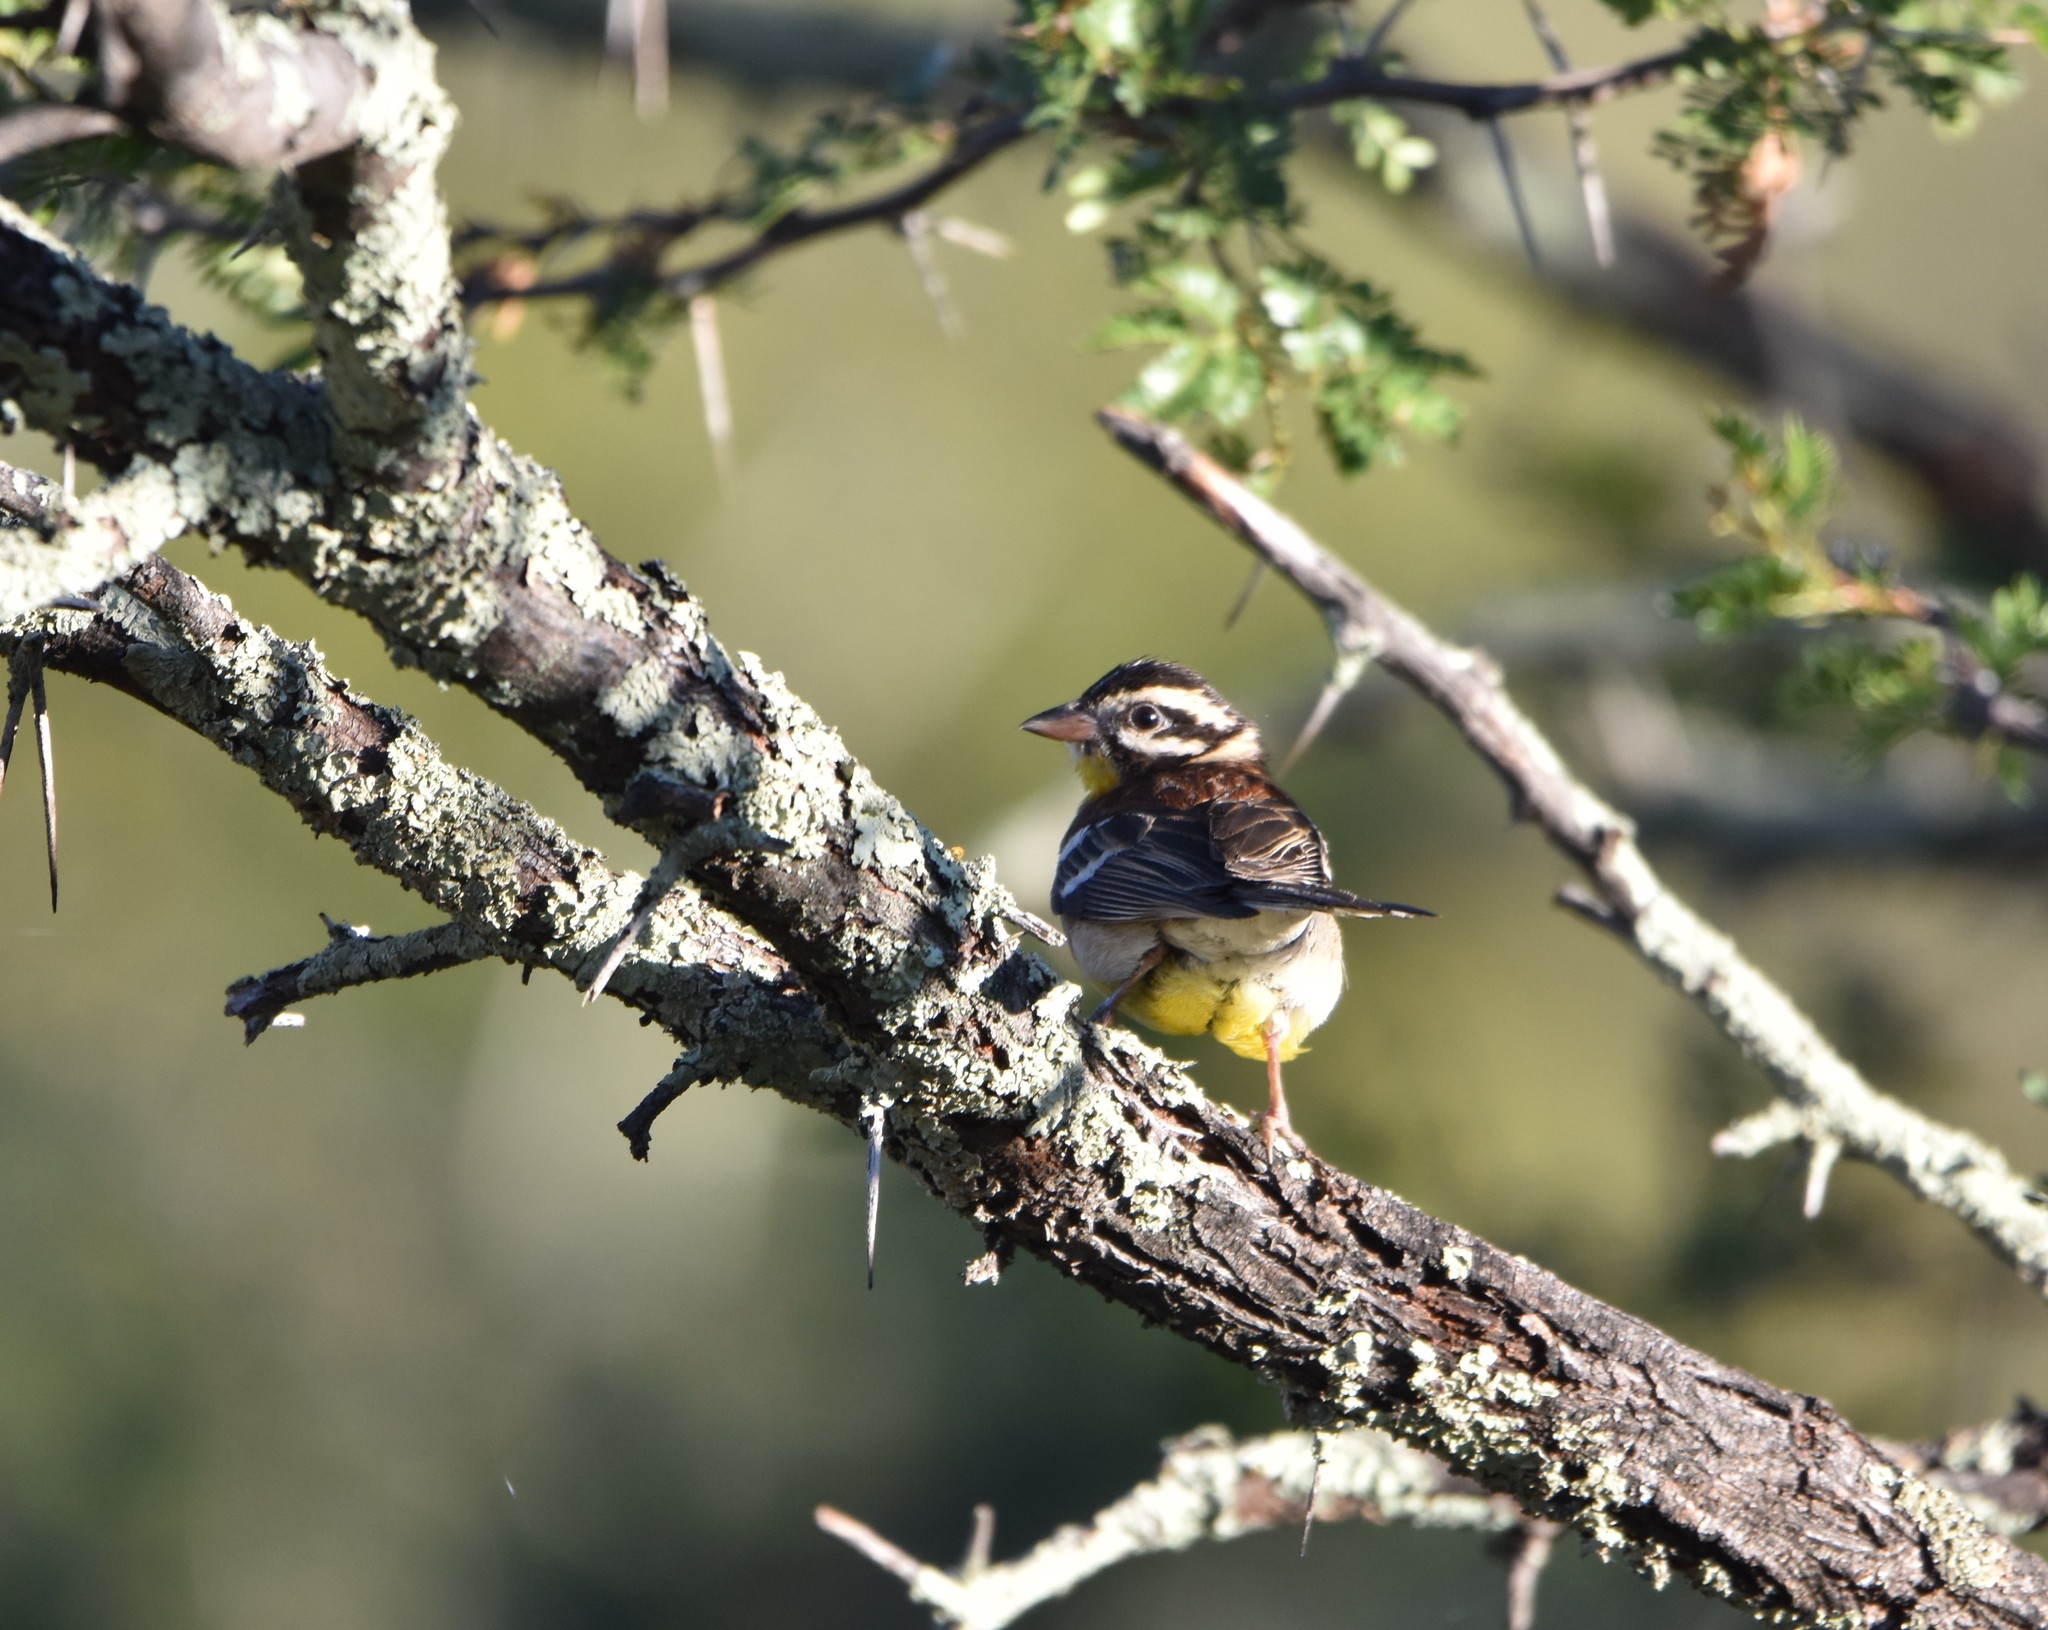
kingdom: Animalia
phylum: Chordata
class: Aves
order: Passeriformes
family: Emberizidae
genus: Emberiza
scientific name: Emberiza flaviventris
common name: Golden-breasted bunting
